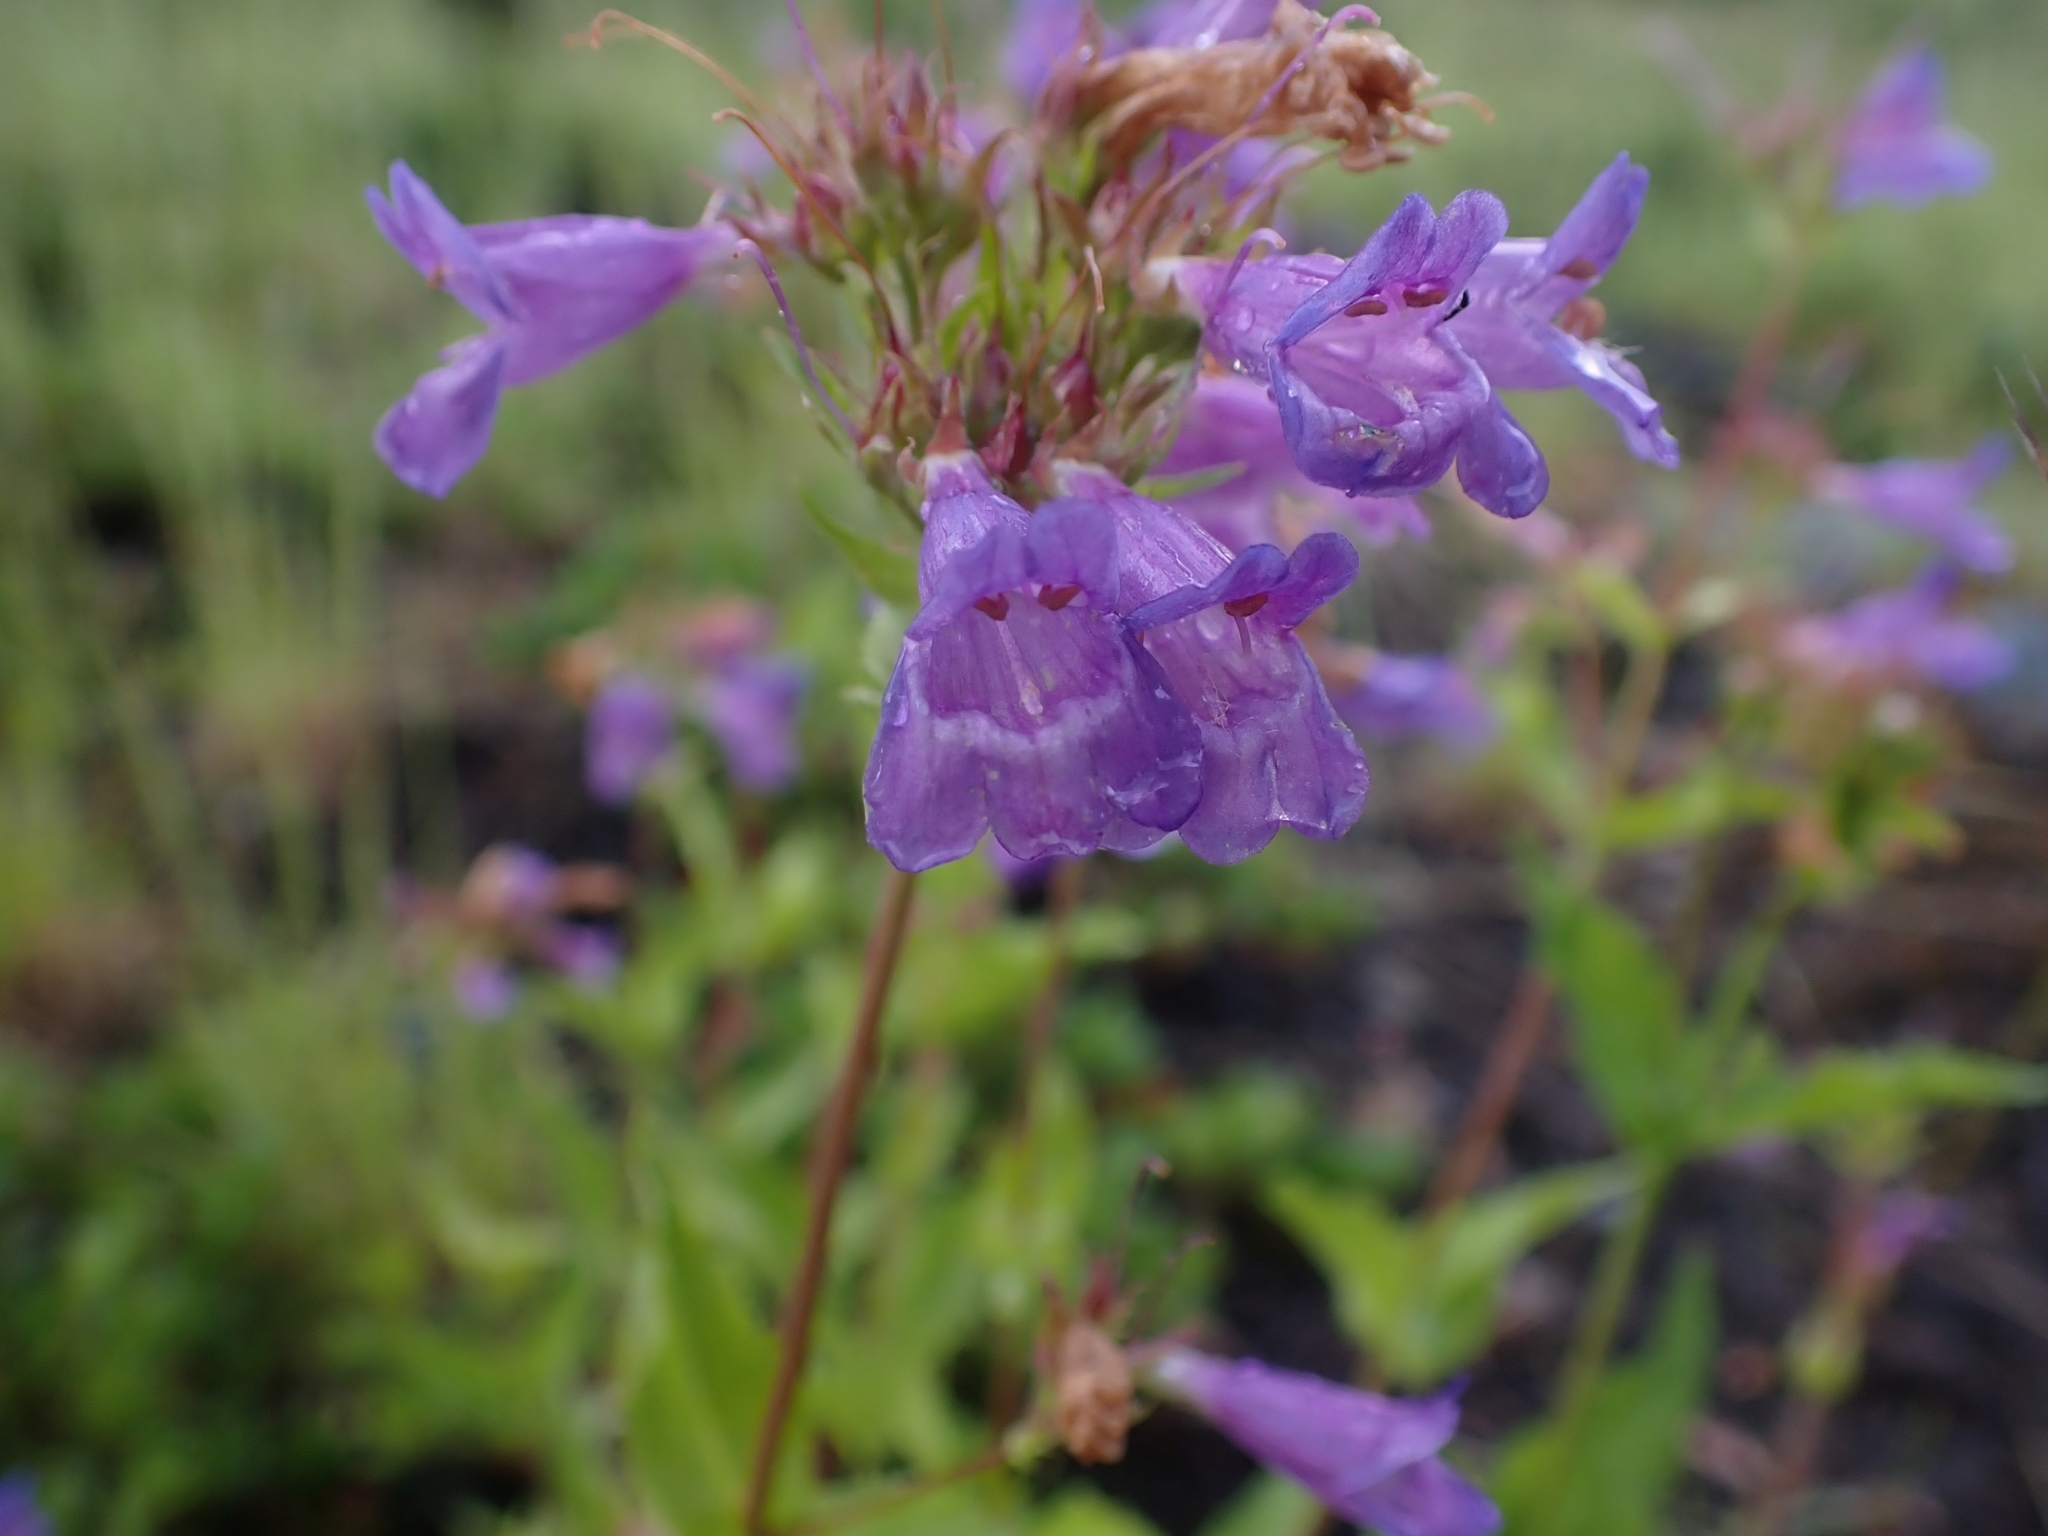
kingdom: Plantae
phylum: Tracheophyta
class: Magnoliopsida
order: Lamiales
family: Plantaginaceae
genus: Penstemon
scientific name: Penstemon serrulatus
